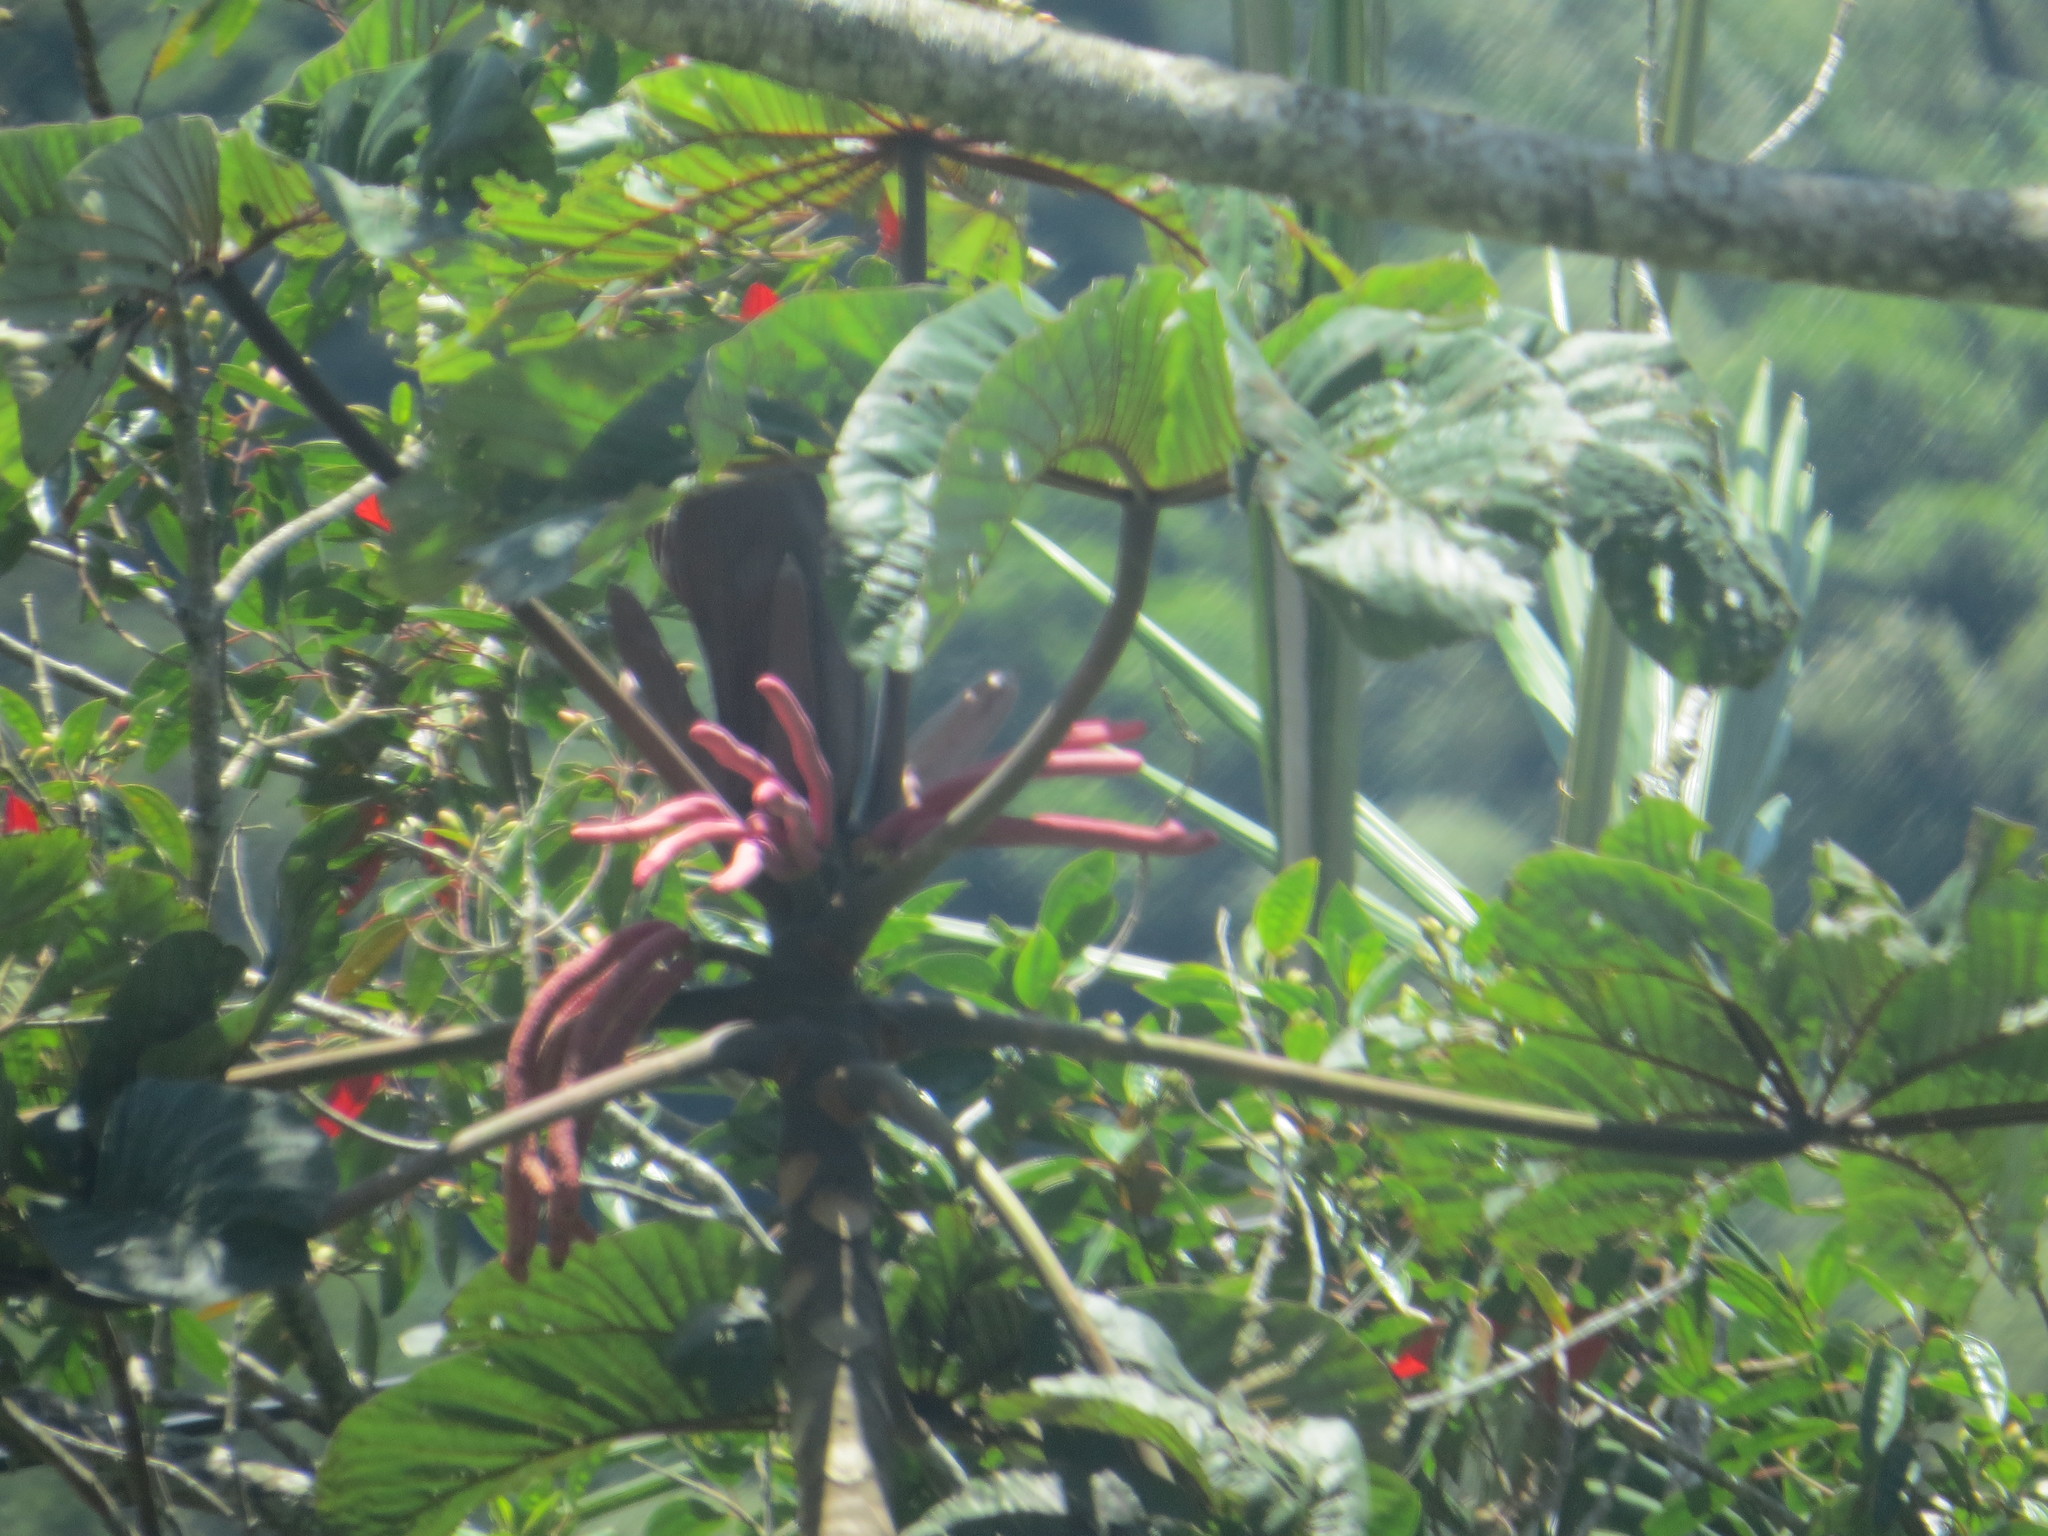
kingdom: Plantae
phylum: Tracheophyta
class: Magnoliopsida
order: Rosales
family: Urticaceae
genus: Cecropia
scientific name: Cecropia glaziovii
